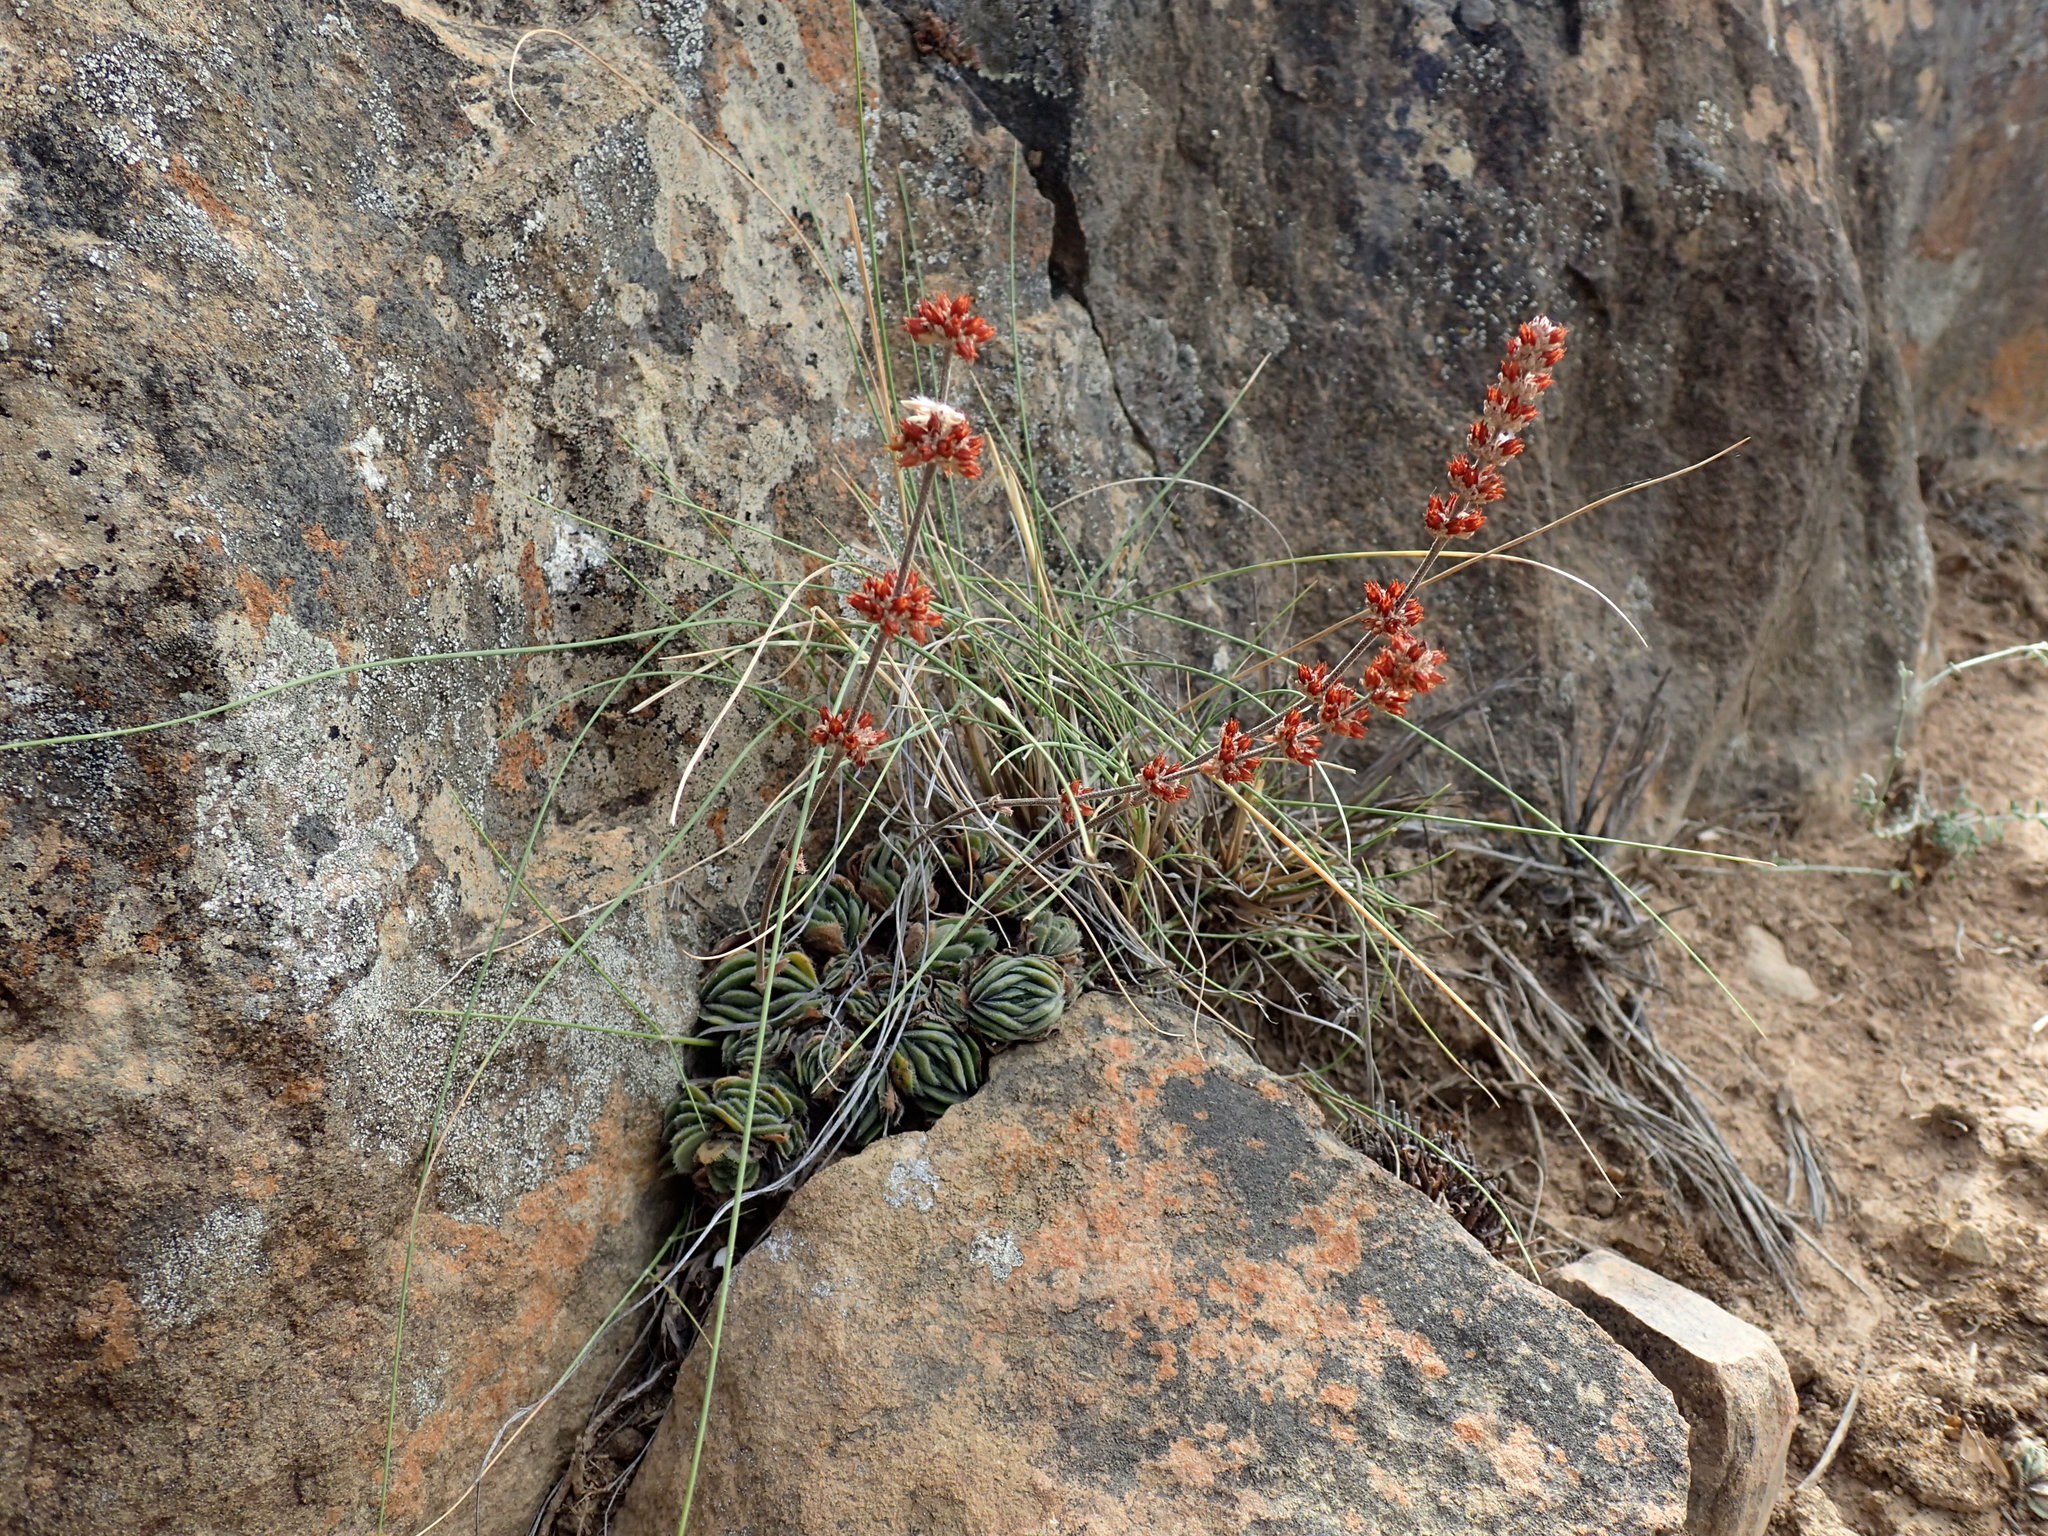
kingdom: Plantae
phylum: Tracheophyta
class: Magnoliopsida
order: Saxifragales
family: Crassulaceae
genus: Crassula
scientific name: Crassula tomentosa
